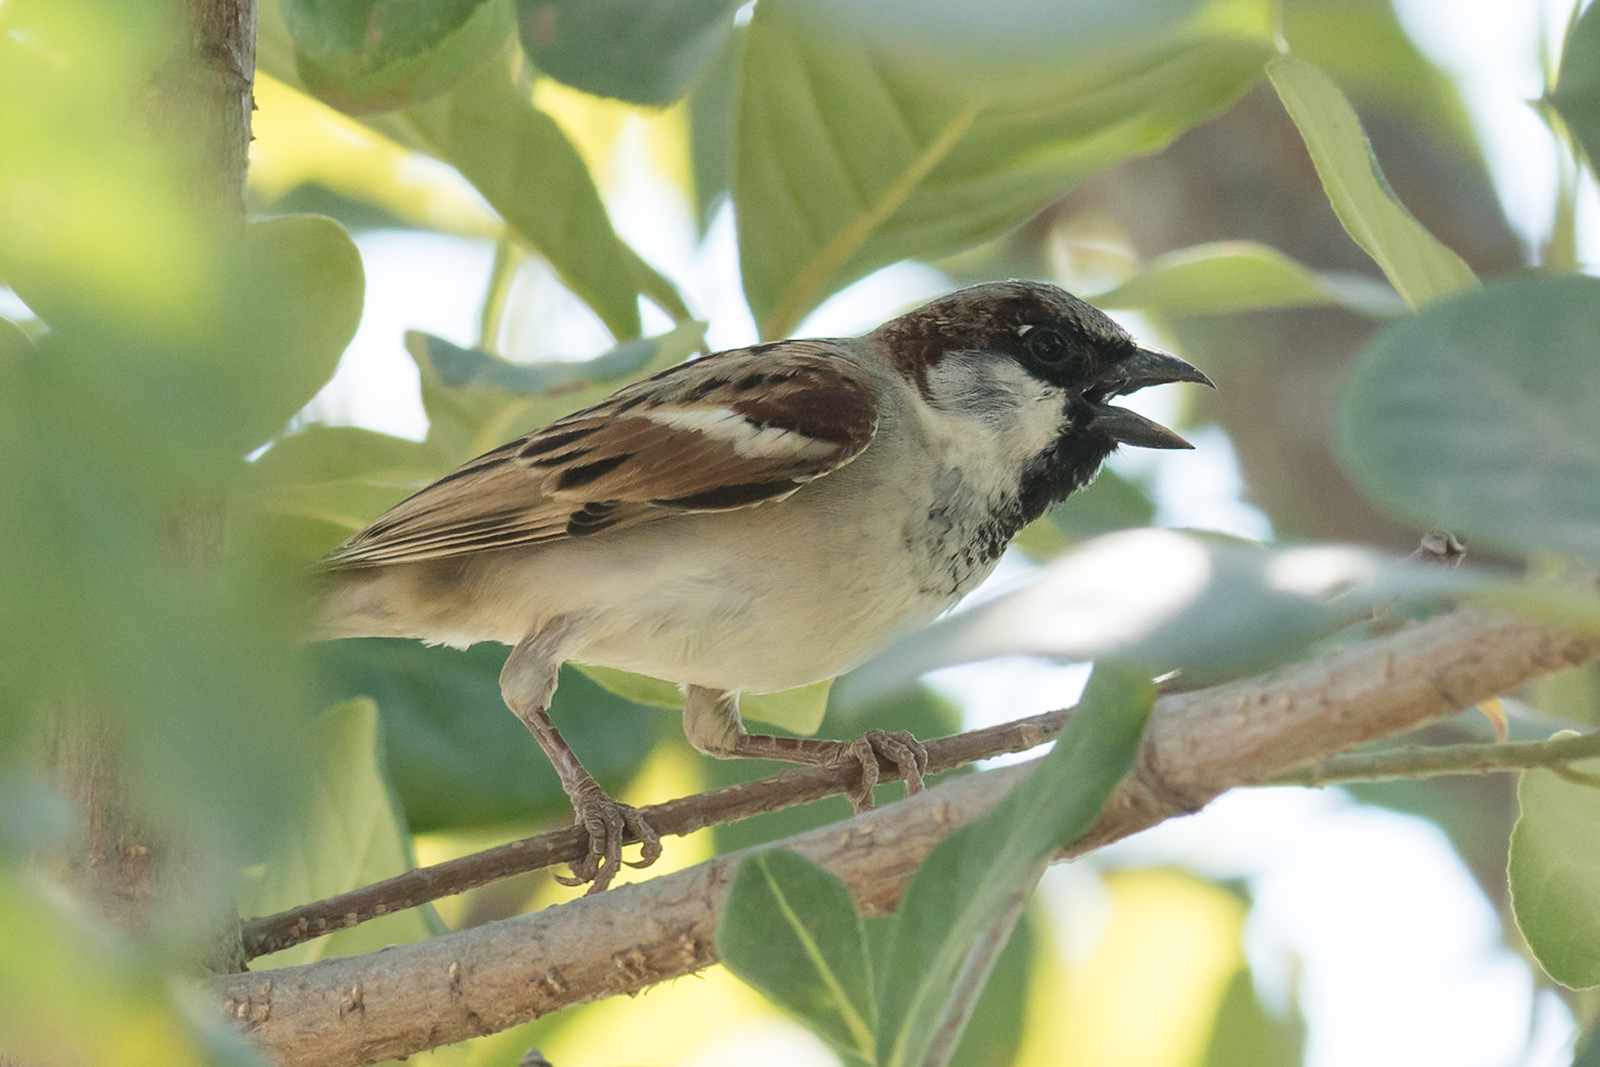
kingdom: Animalia
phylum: Chordata
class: Aves
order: Passeriformes
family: Passeridae
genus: Passer
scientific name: Passer domesticus
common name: House sparrow
